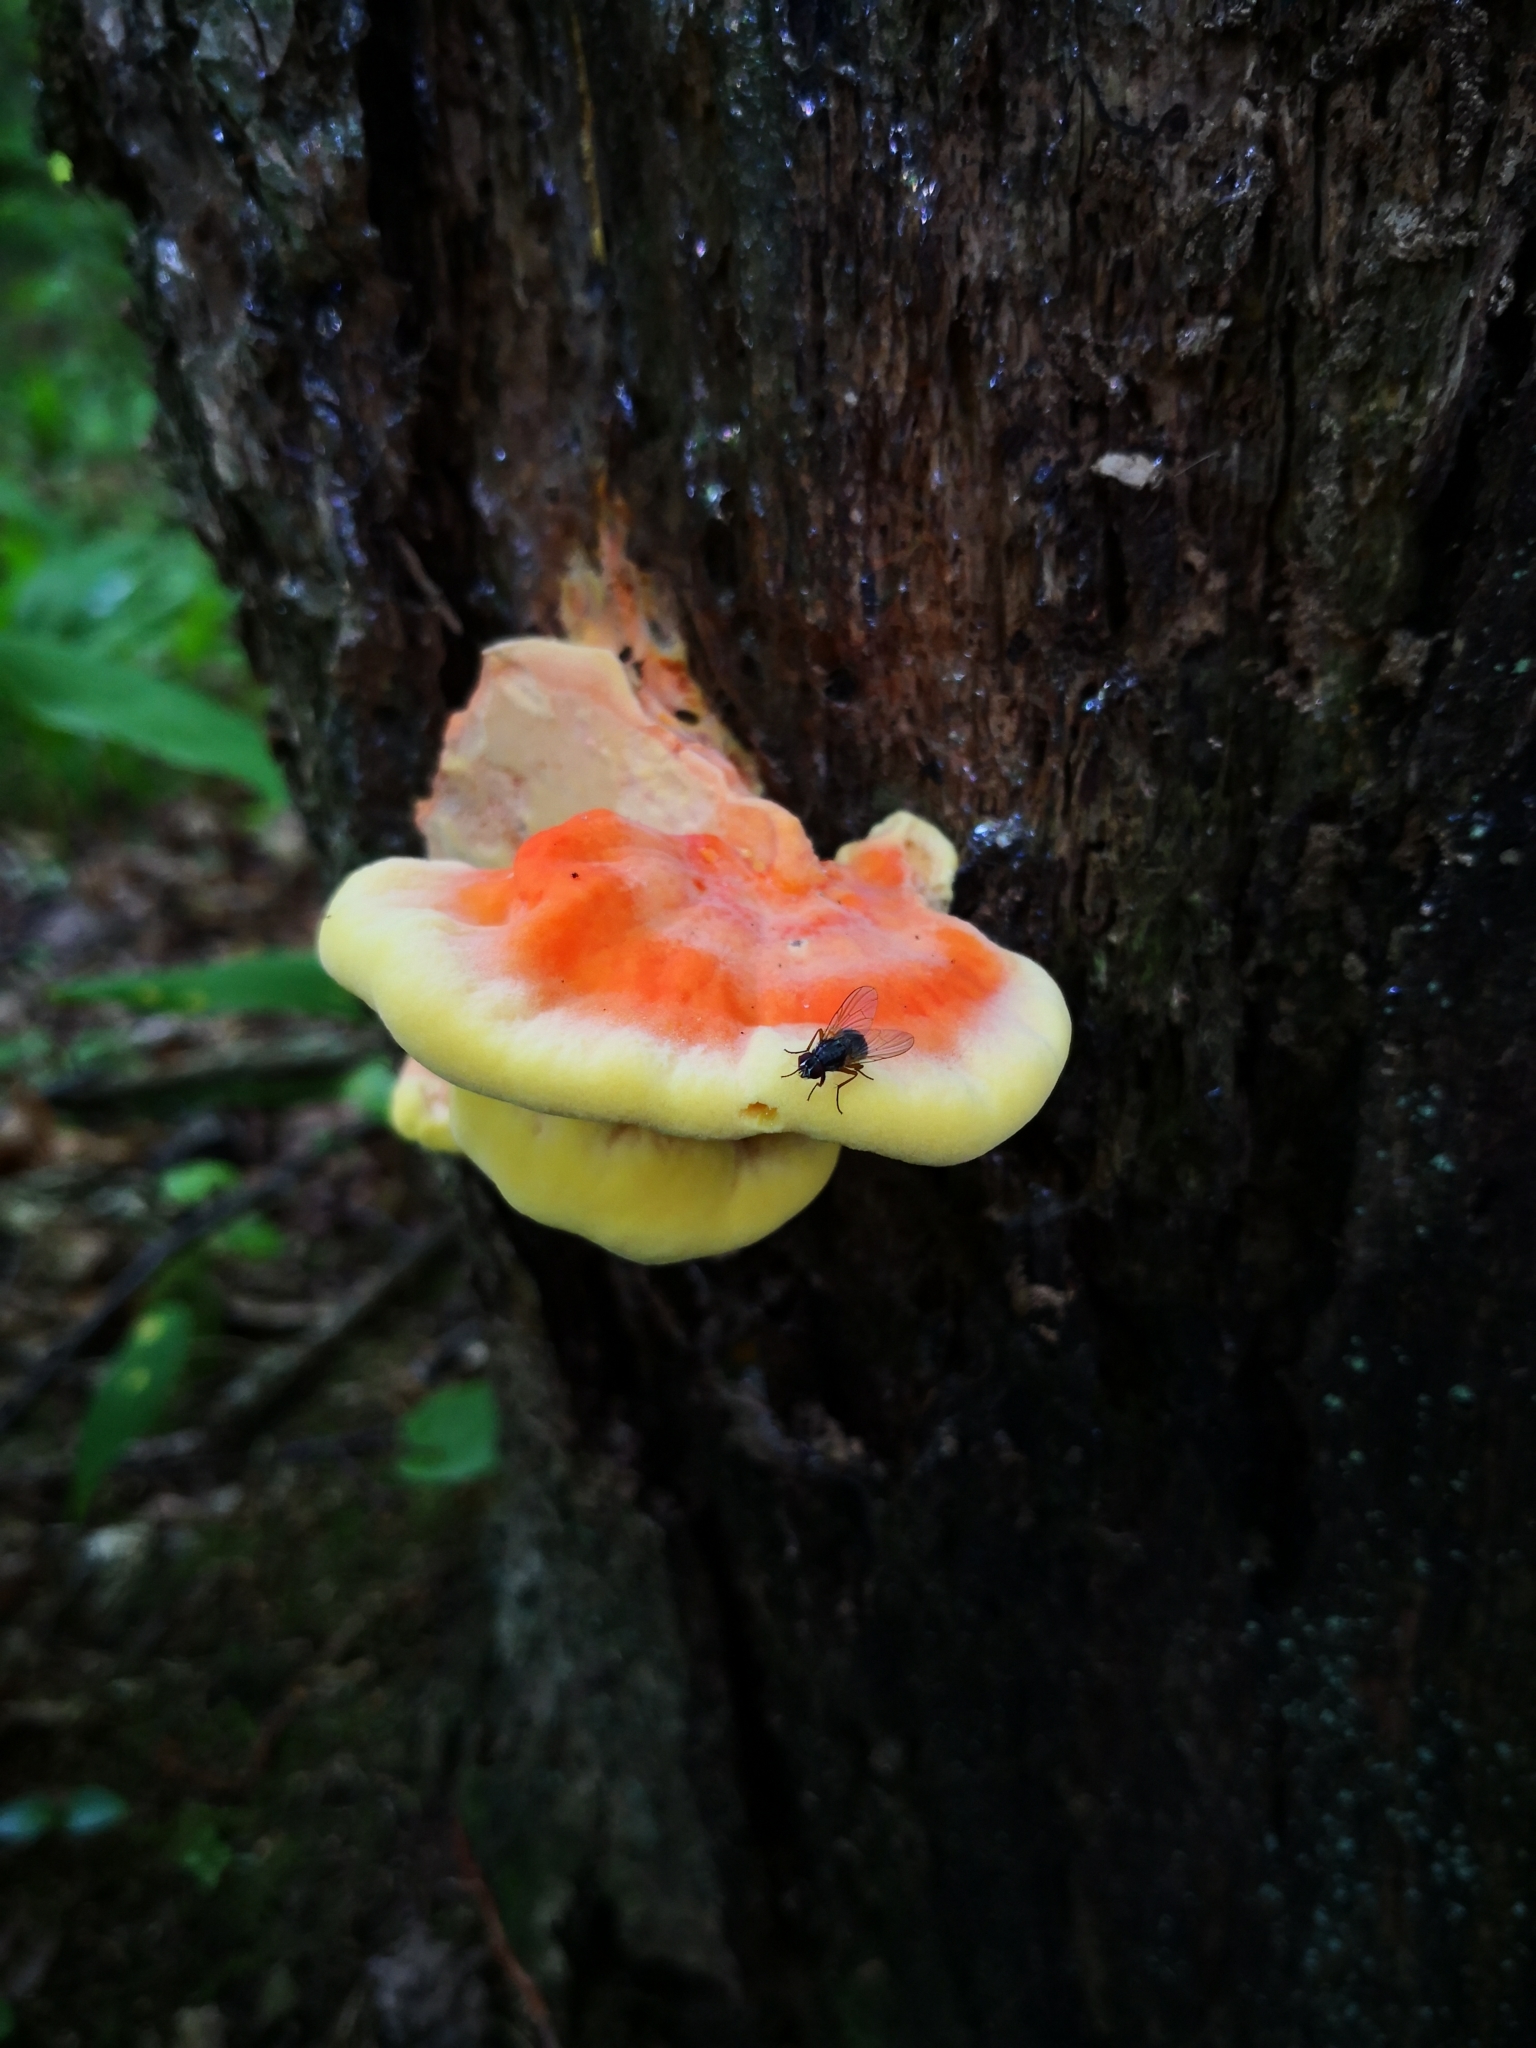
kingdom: Fungi
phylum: Basidiomycota
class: Agaricomycetes
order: Polyporales
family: Laetiporaceae
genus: Laetiporus
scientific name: Laetiporus sulphureus
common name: Chicken of the woods
